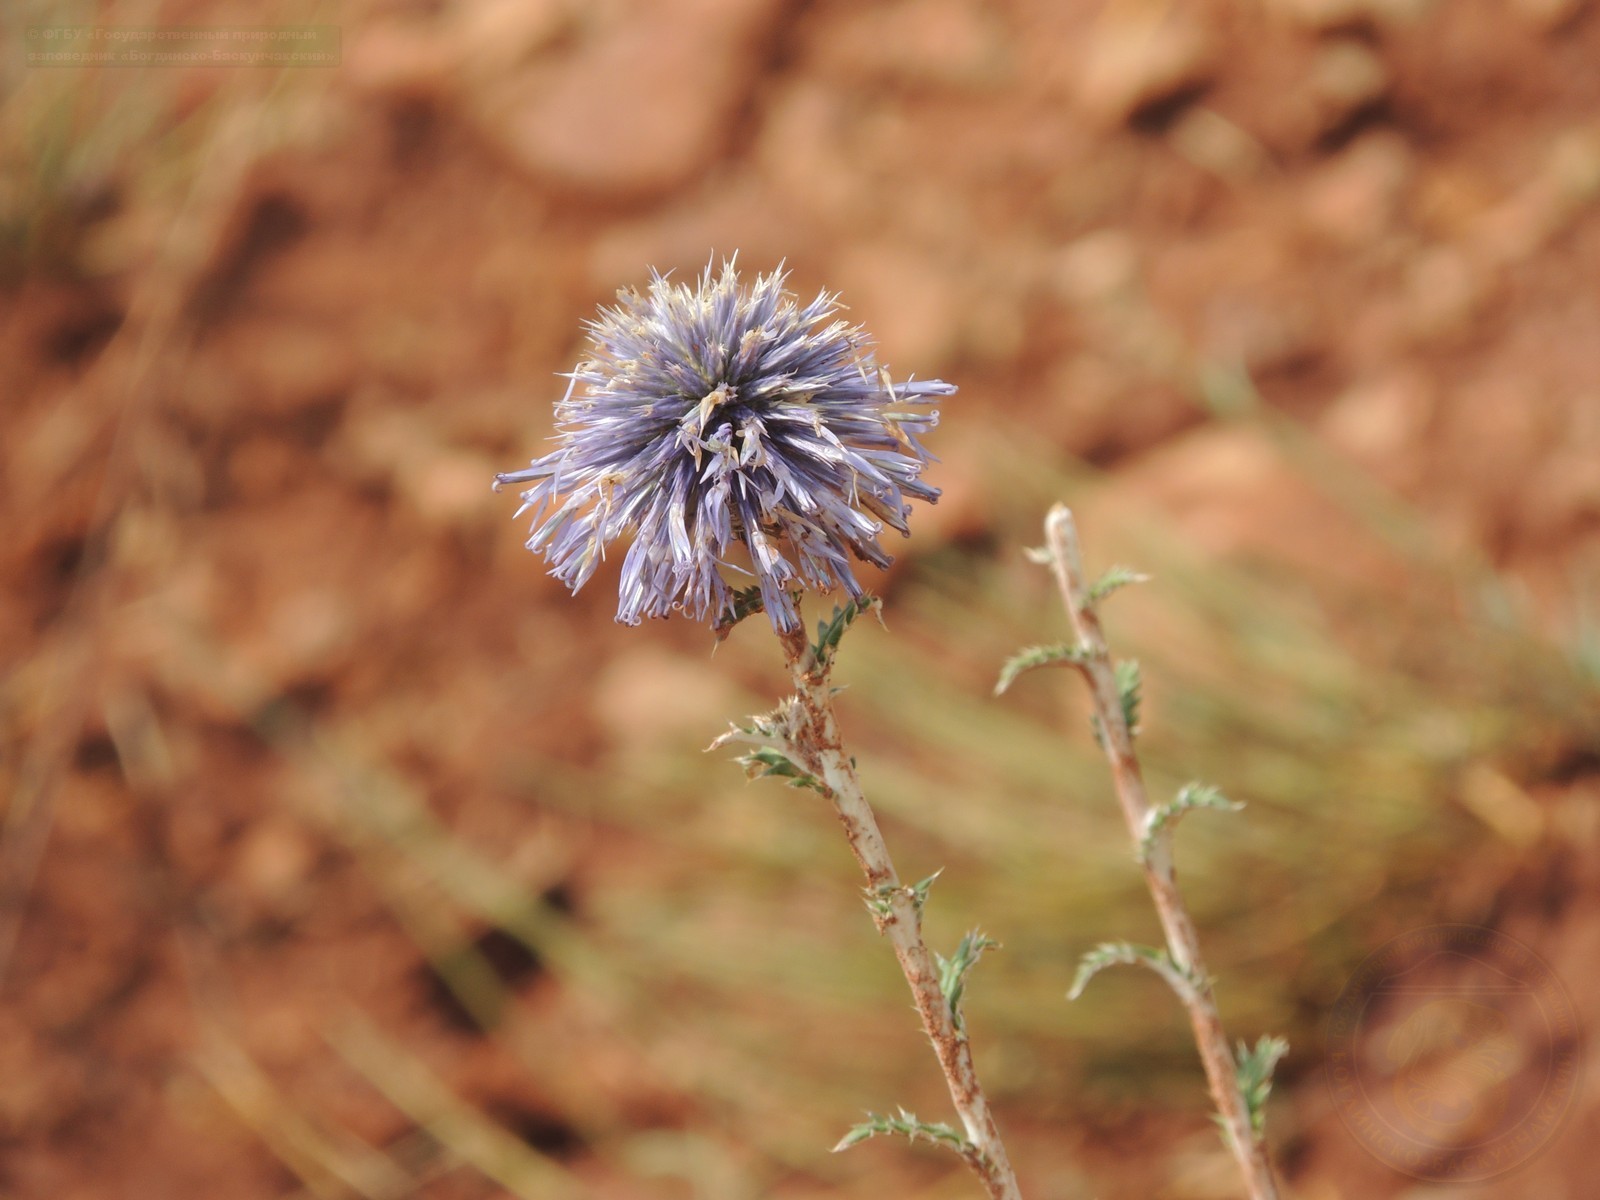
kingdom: Plantae
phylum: Tracheophyta
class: Magnoliopsida
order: Asterales
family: Asteraceae
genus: Echinops
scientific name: Echinops ritro
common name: Globe thistle
